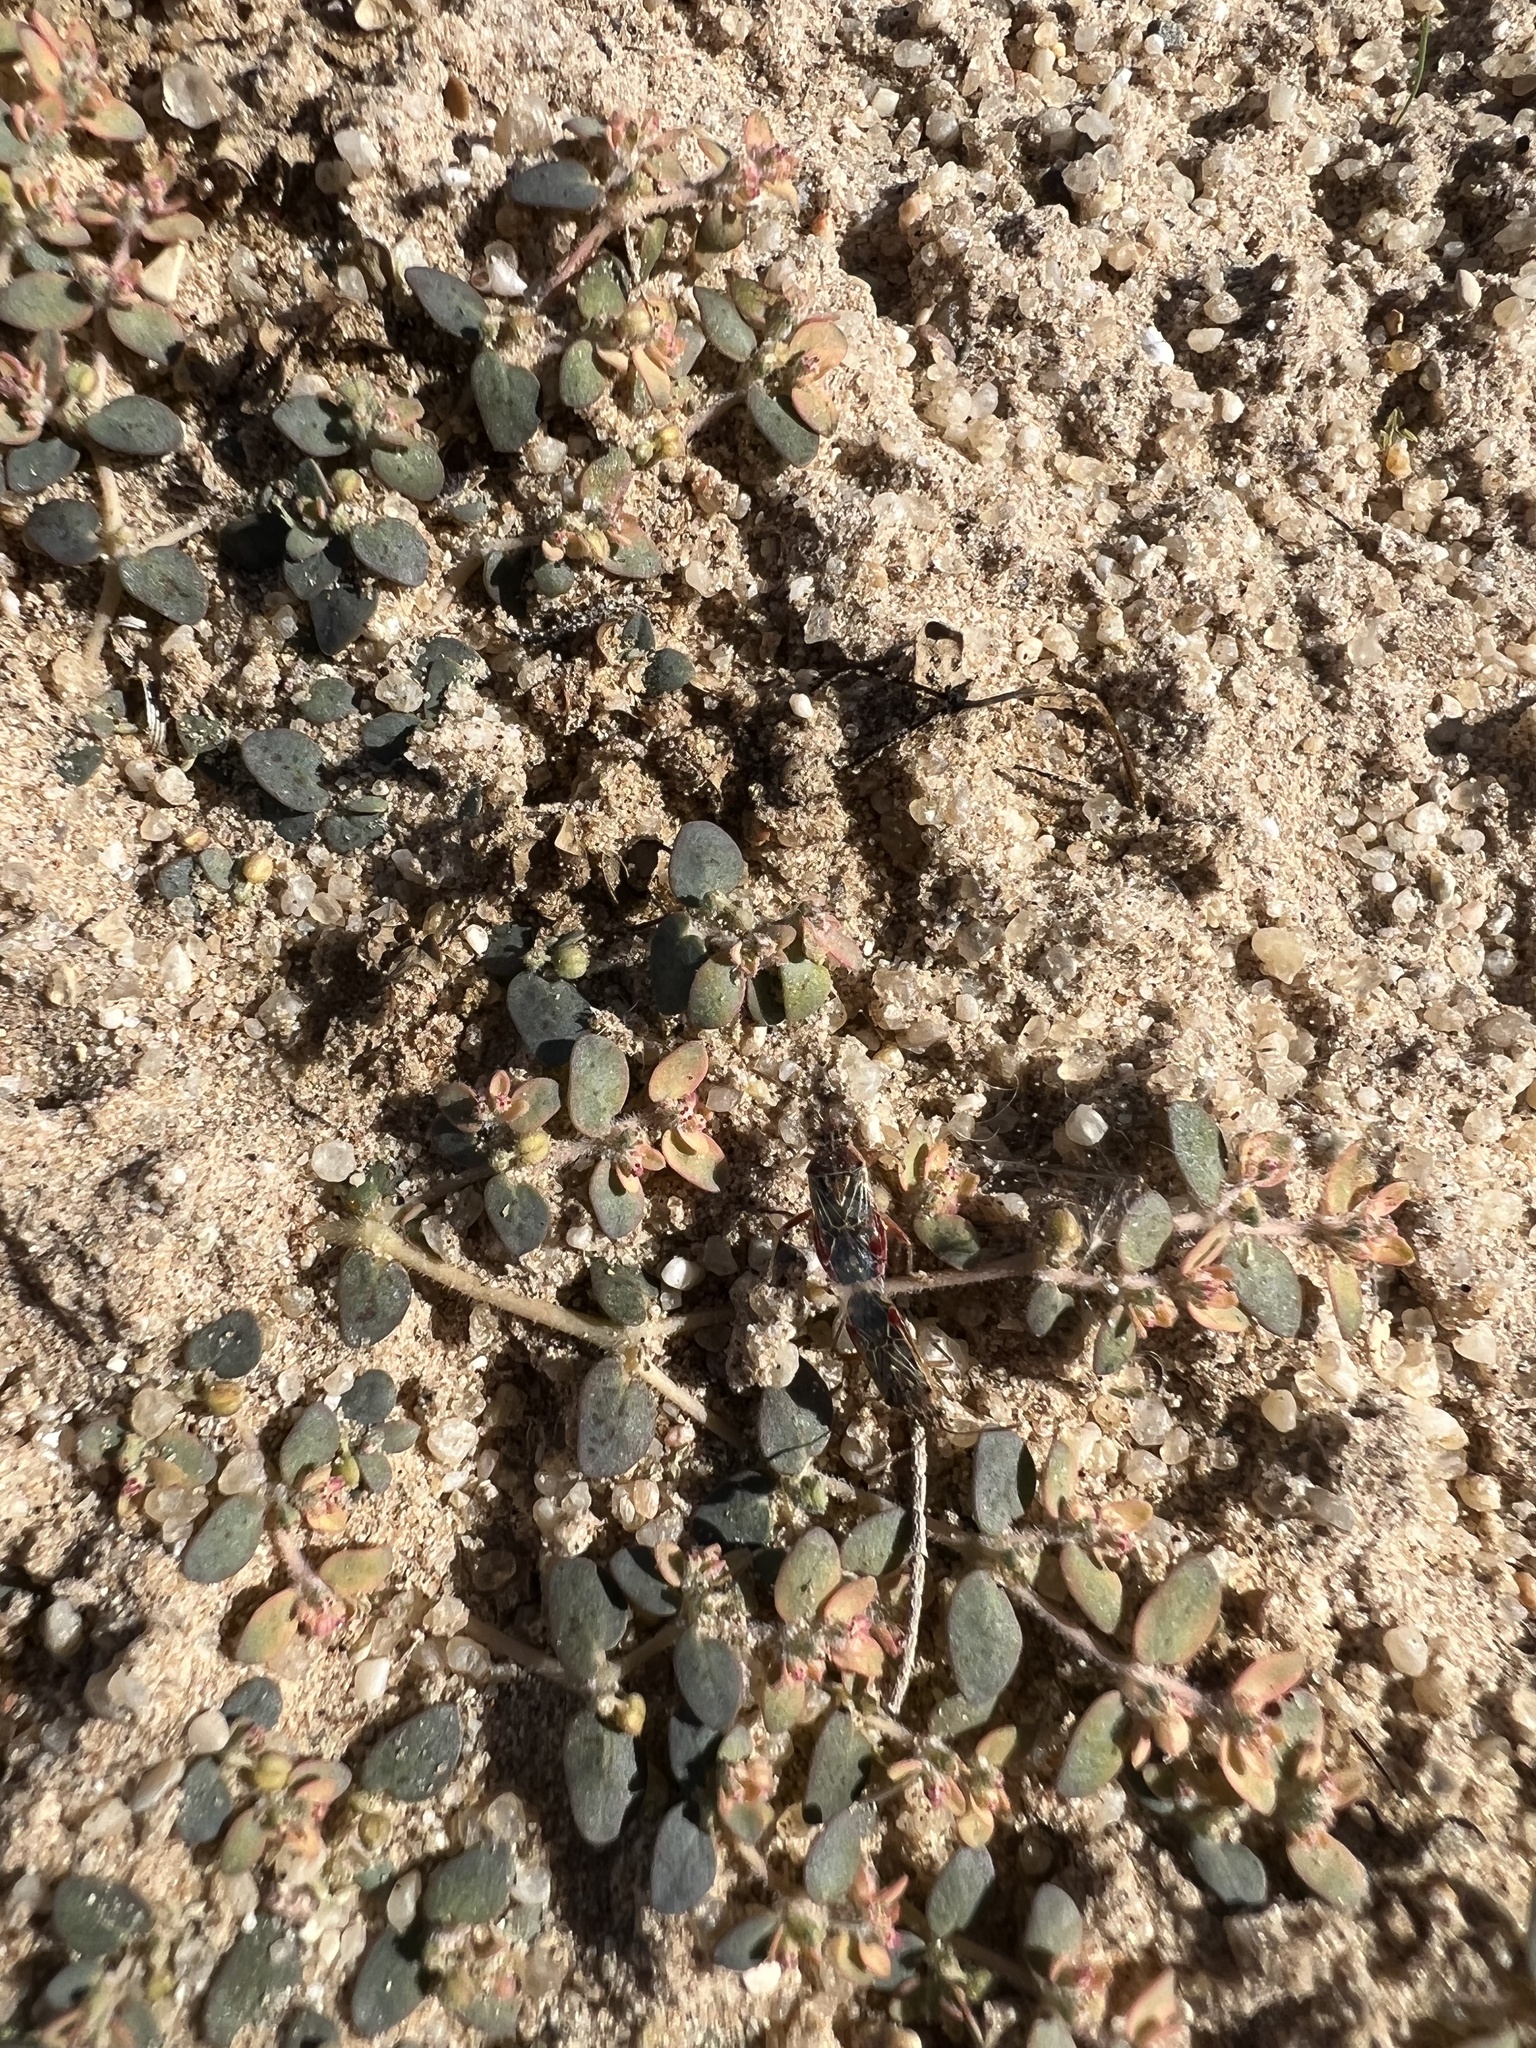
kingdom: Plantae
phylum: Tracheophyta
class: Magnoliopsida
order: Malpighiales
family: Euphorbiaceae
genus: Euphorbia
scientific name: Euphorbia micromera
